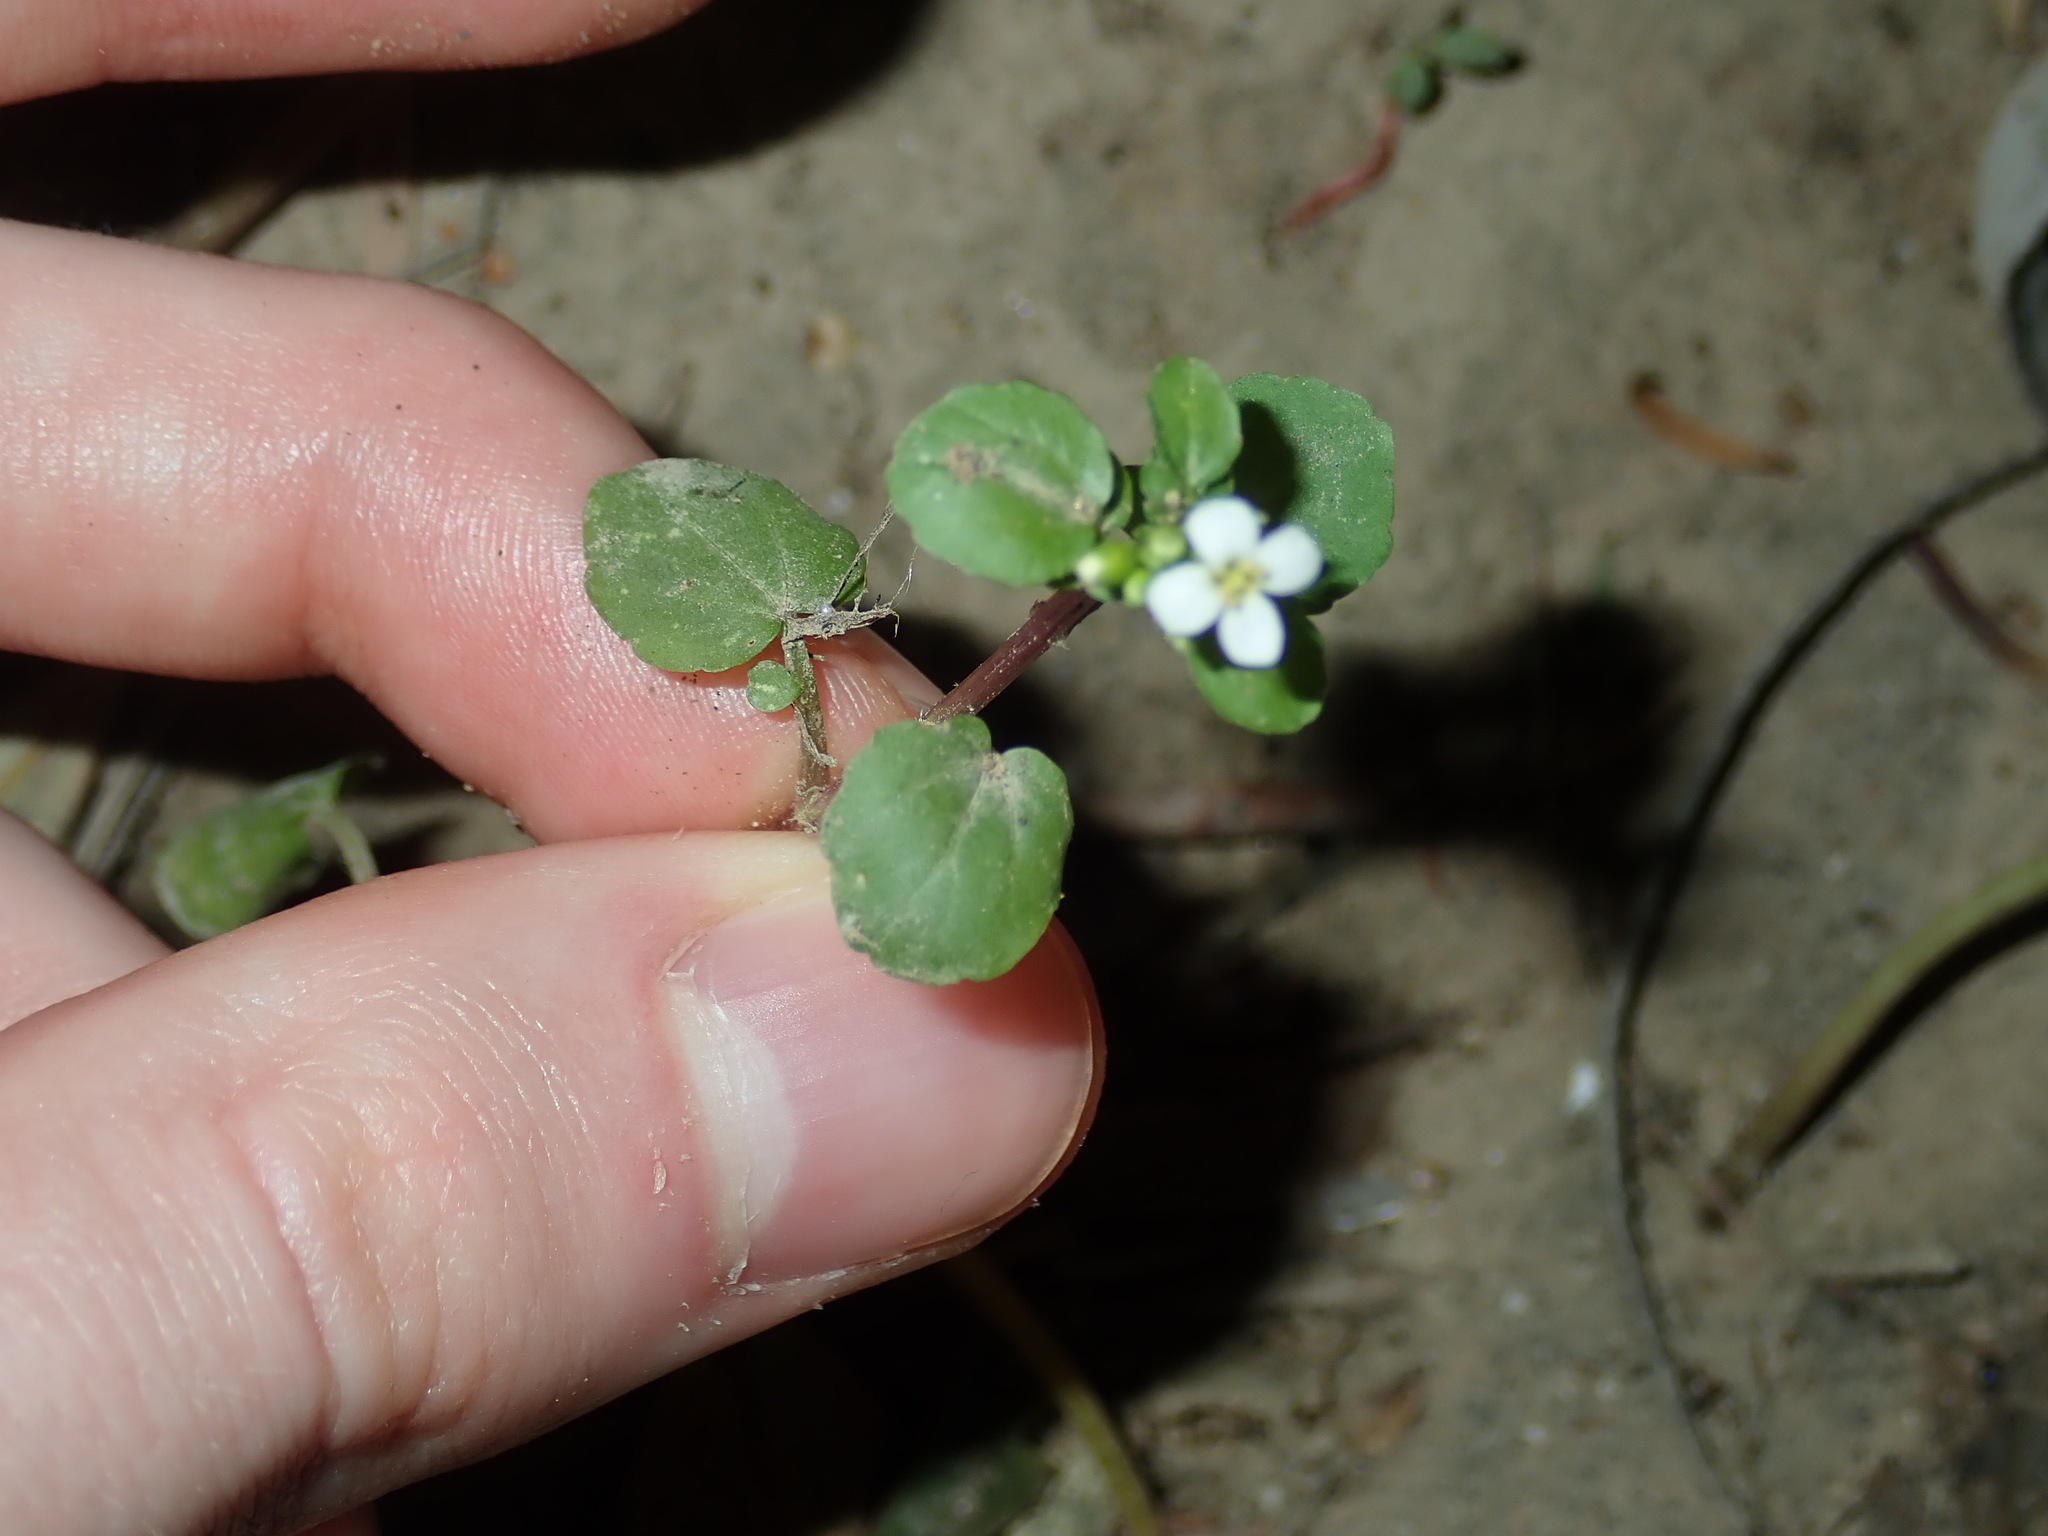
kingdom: Plantae
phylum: Tracheophyta
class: Magnoliopsida
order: Brassicales
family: Brassicaceae
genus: Nasturtium
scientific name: Nasturtium officinale
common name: Watercress
